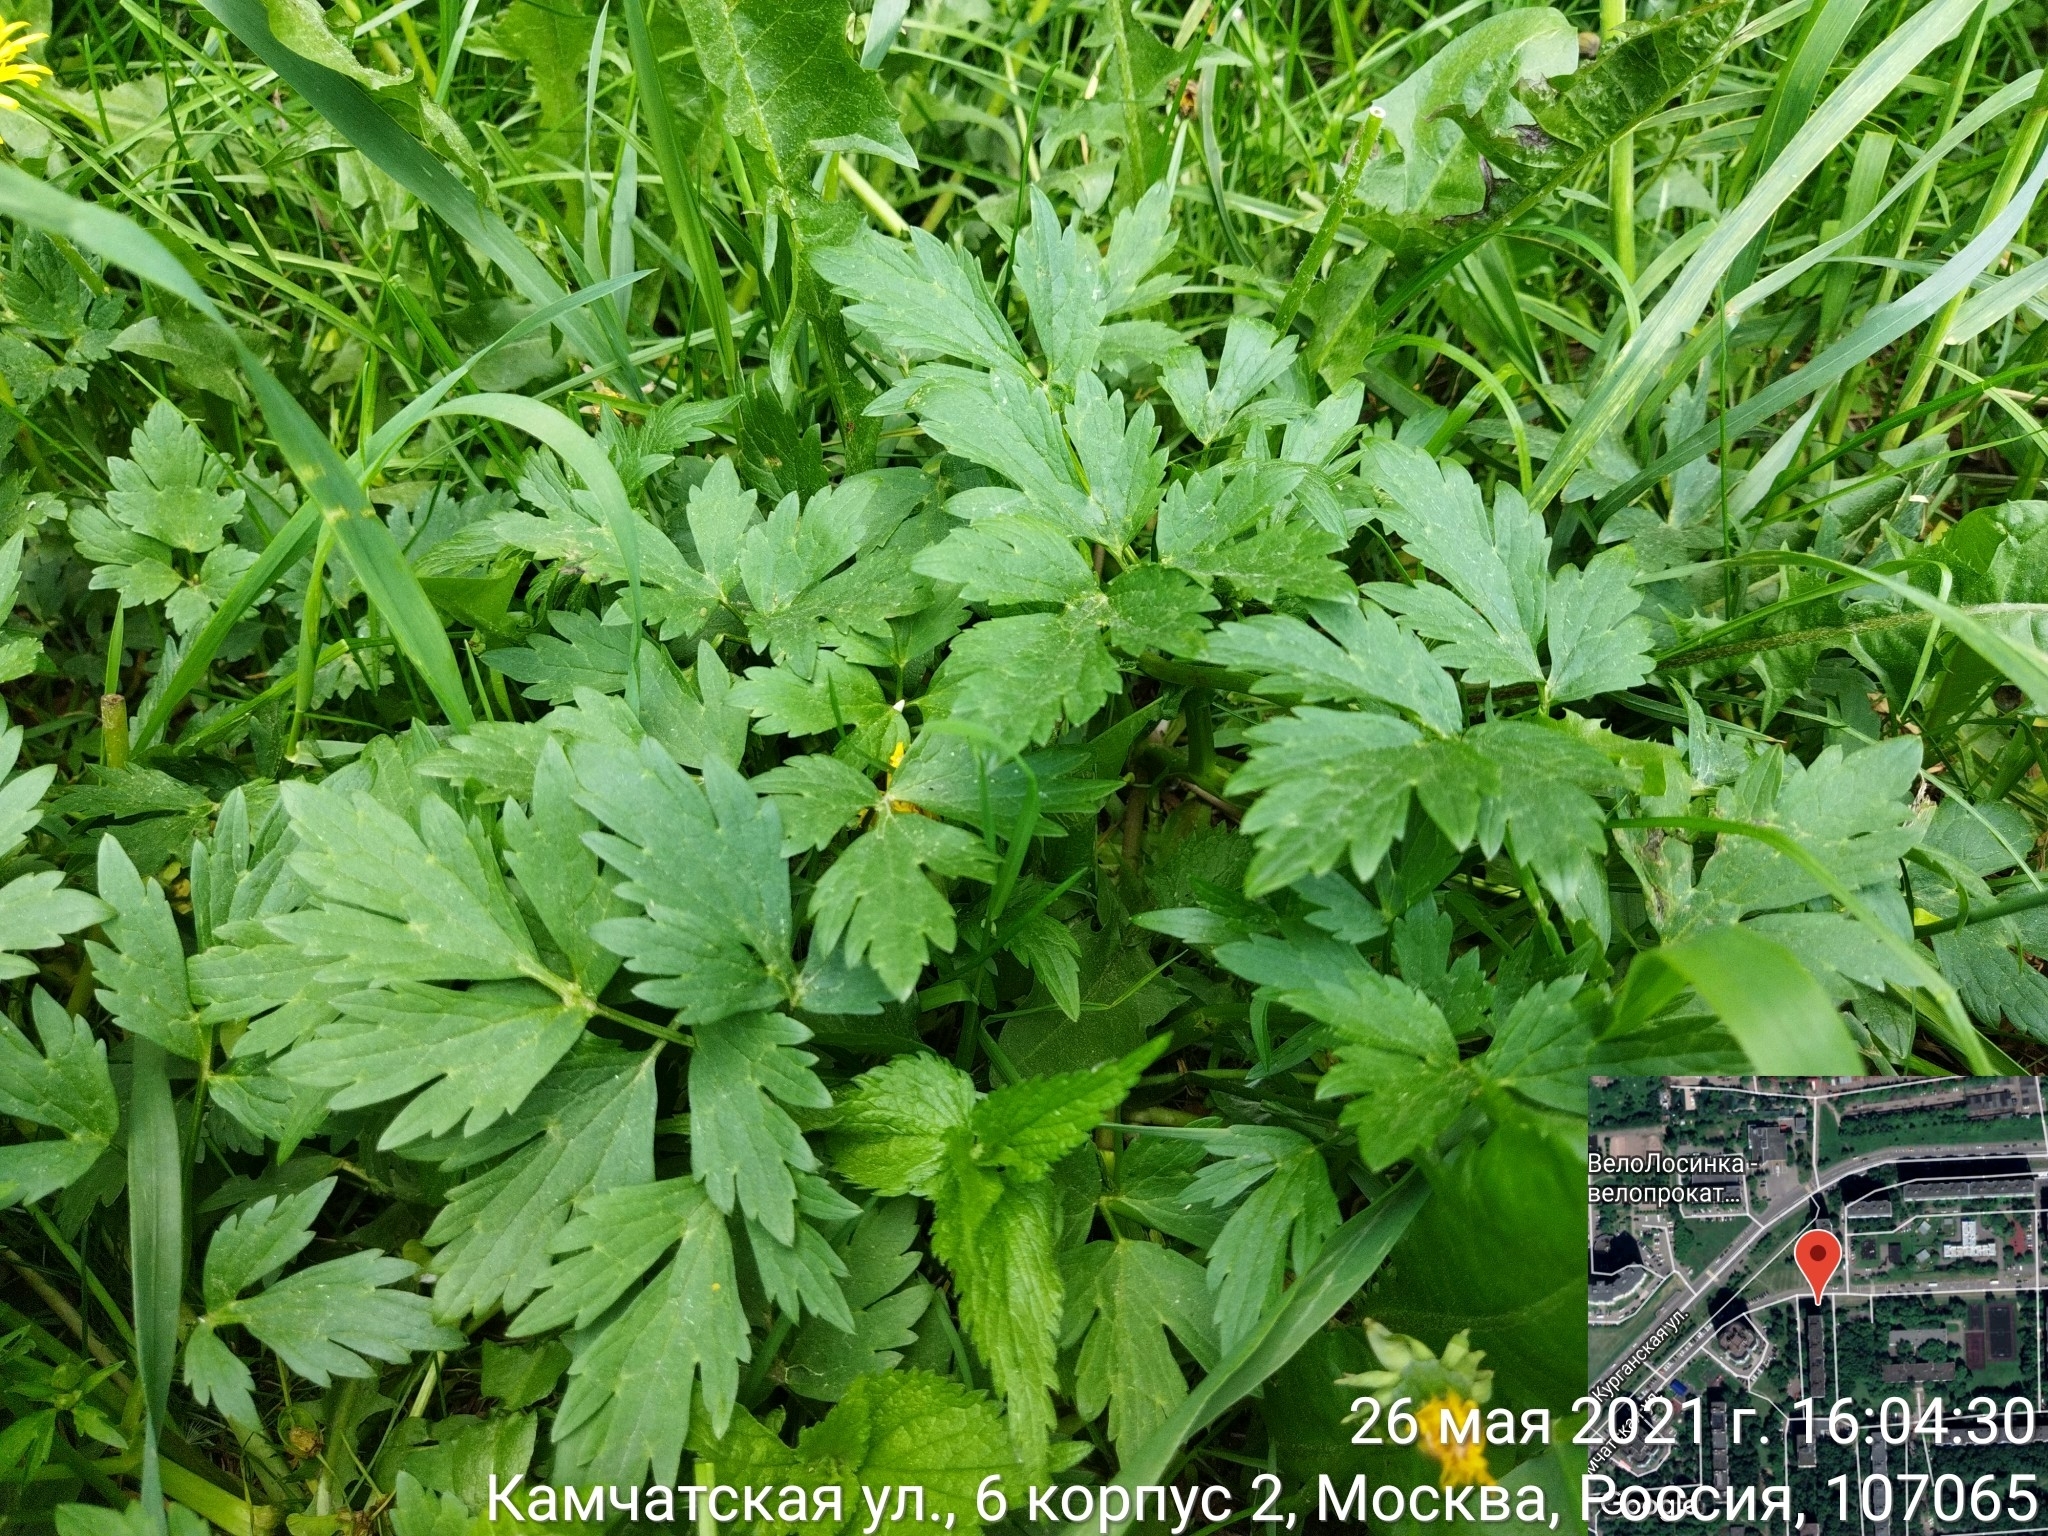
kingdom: Plantae
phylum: Tracheophyta
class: Magnoliopsida
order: Ranunculales
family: Ranunculaceae
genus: Ranunculus
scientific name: Ranunculus repens
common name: Creeping buttercup
